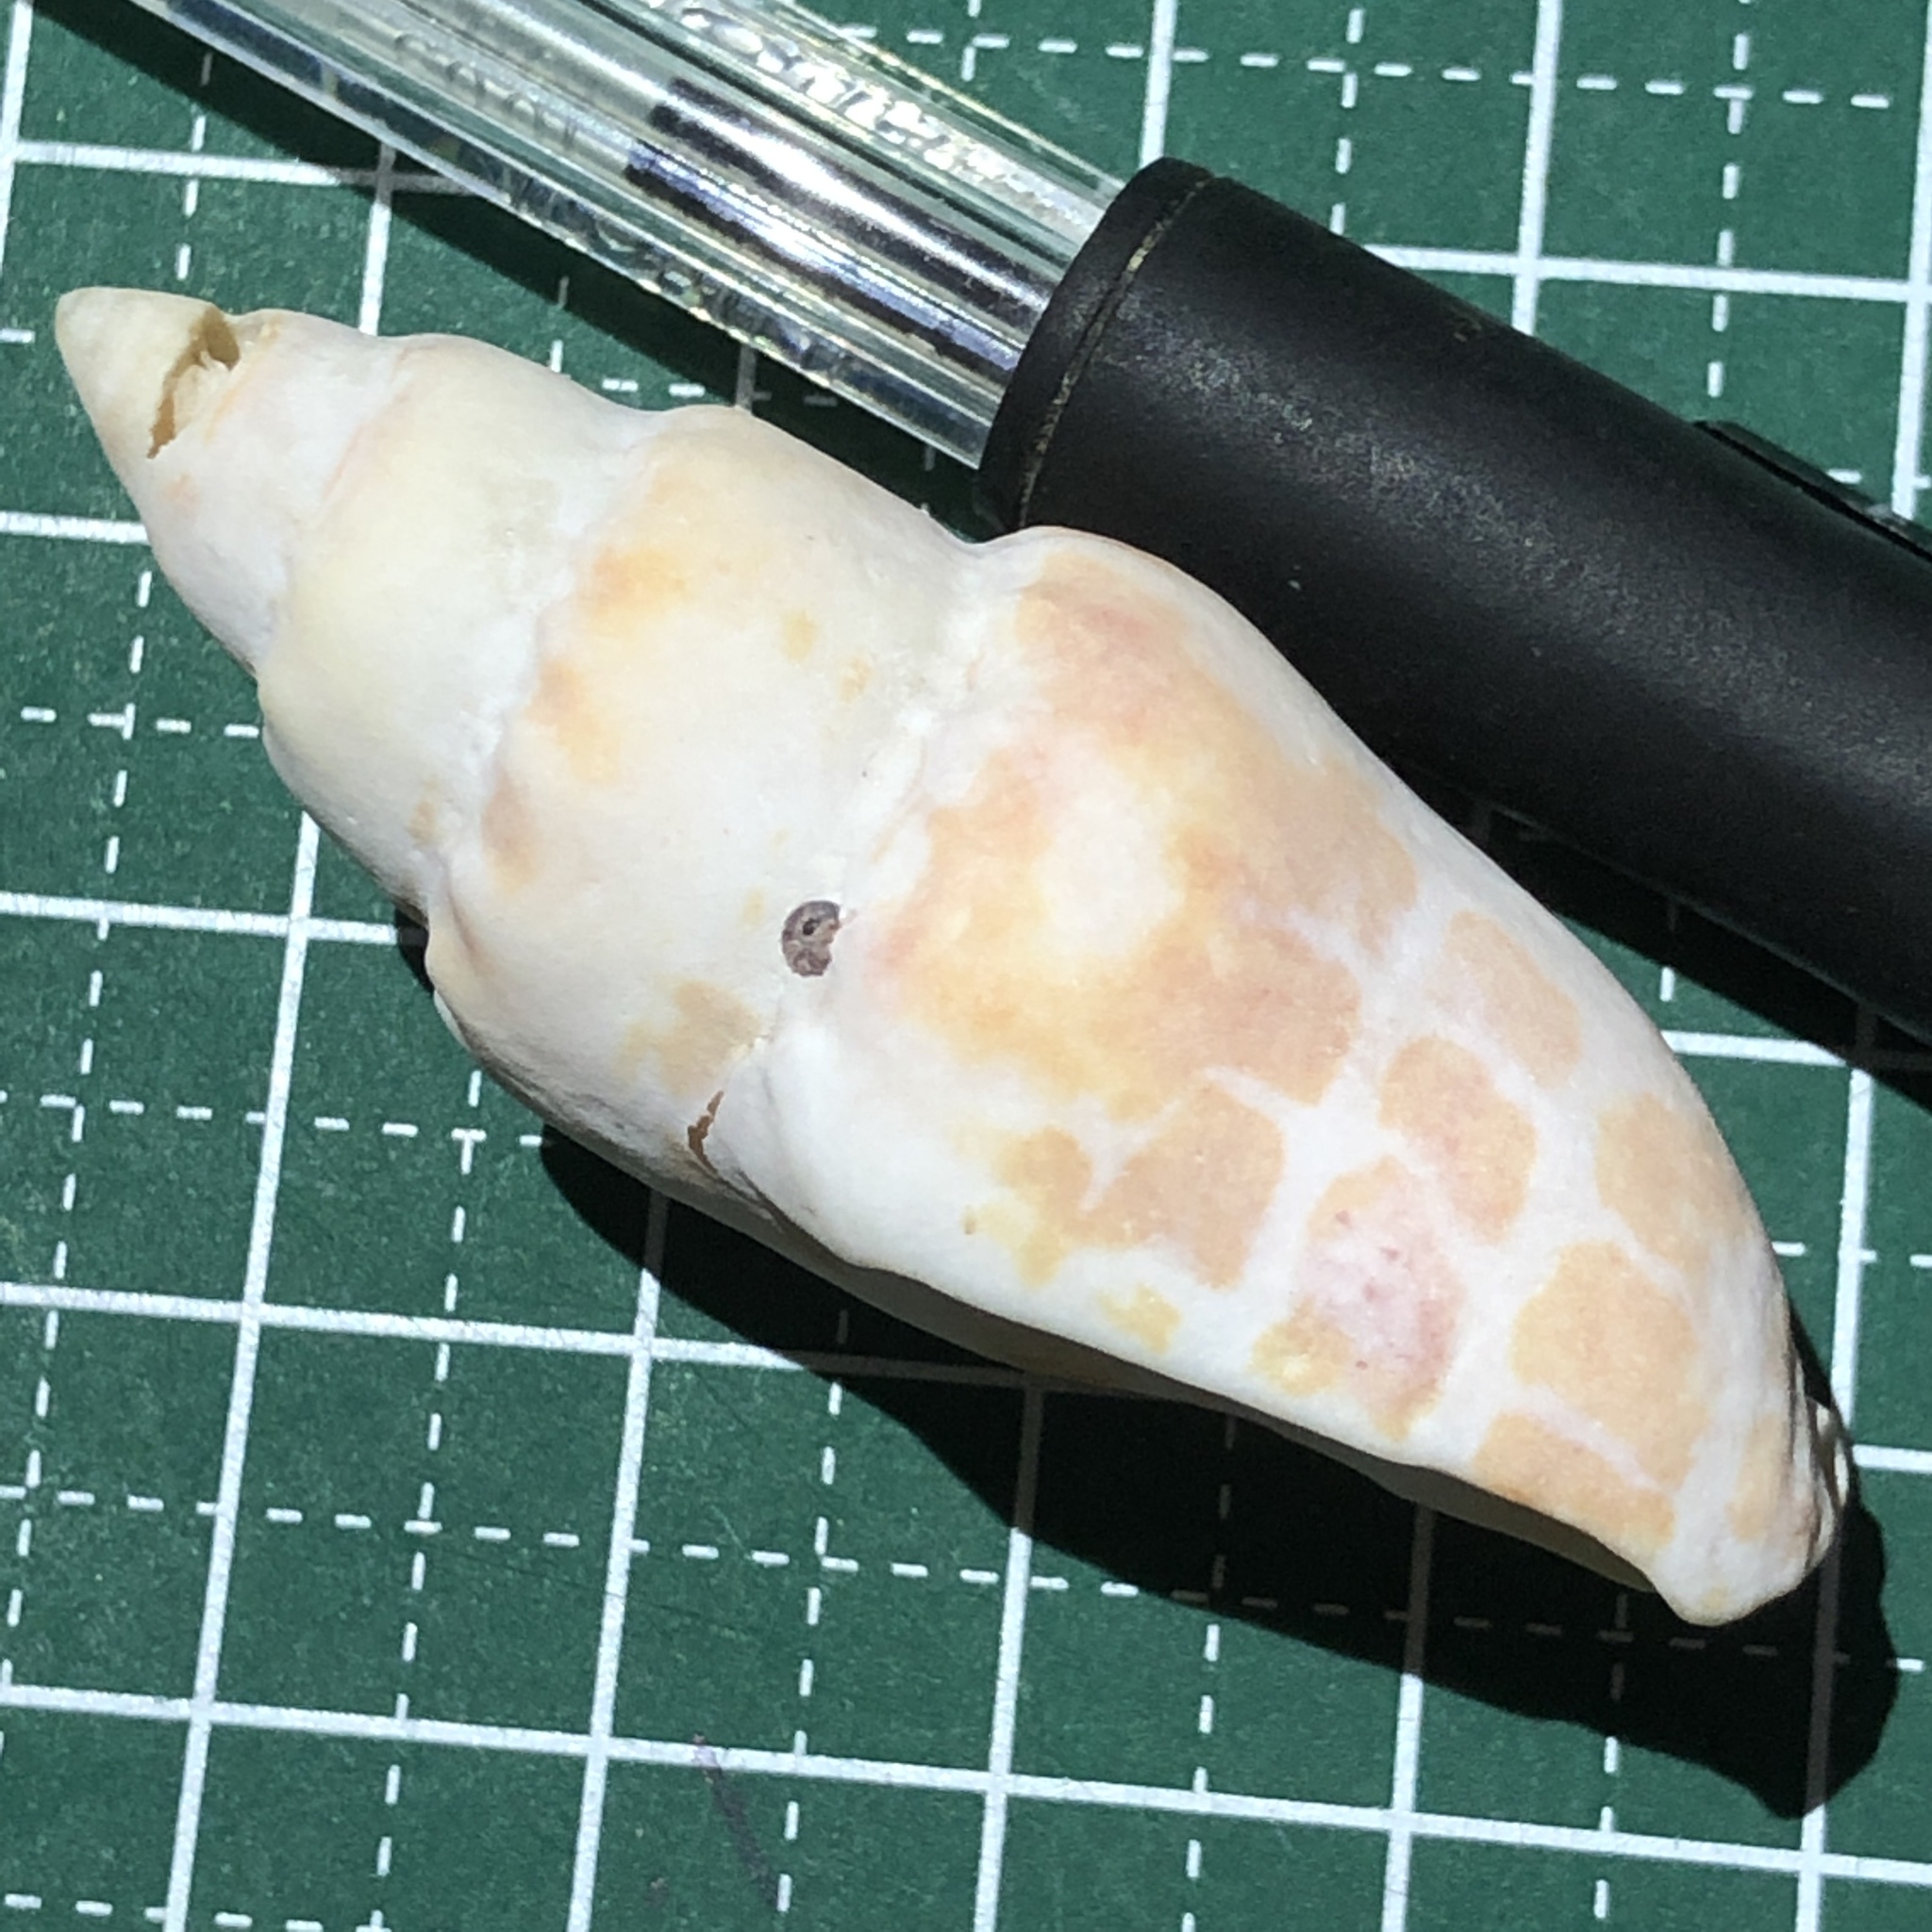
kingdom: Animalia
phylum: Mollusca
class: Gastropoda
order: Neogastropoda
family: Mitridae
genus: Mitra
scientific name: Mitra stictica
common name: Pontifical miter
